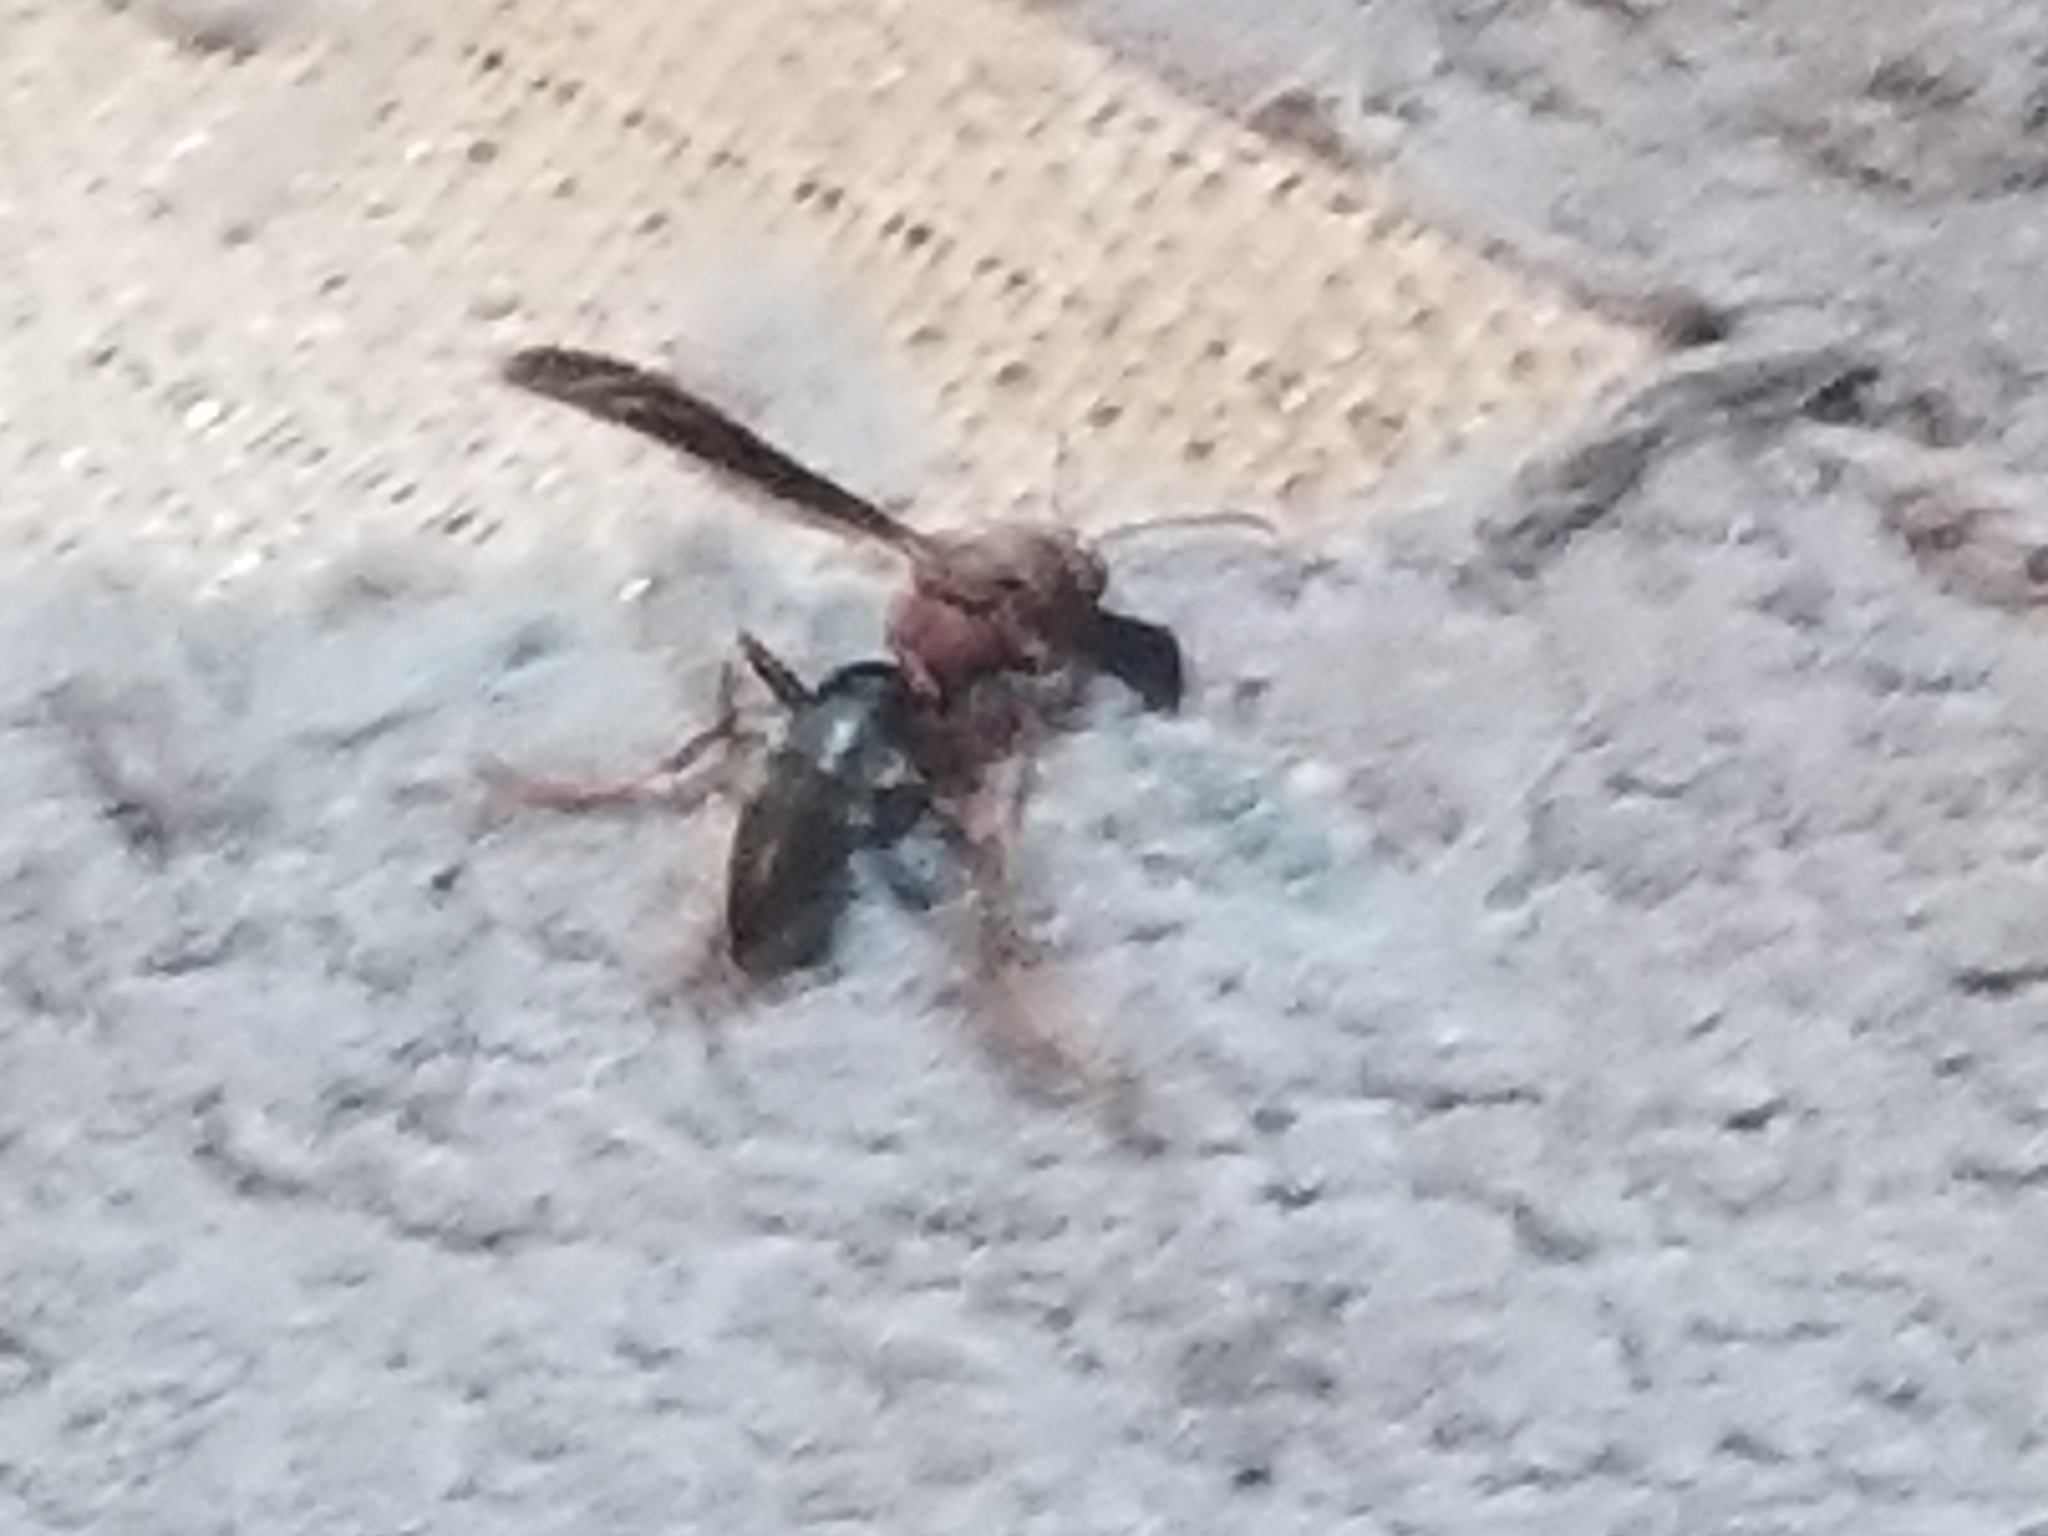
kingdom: Animalia
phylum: Arthropoda
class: Insecta
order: Hymenoptera
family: Eumenidae
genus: Polistes
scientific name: Polistes metricus
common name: Metric paper wasp
